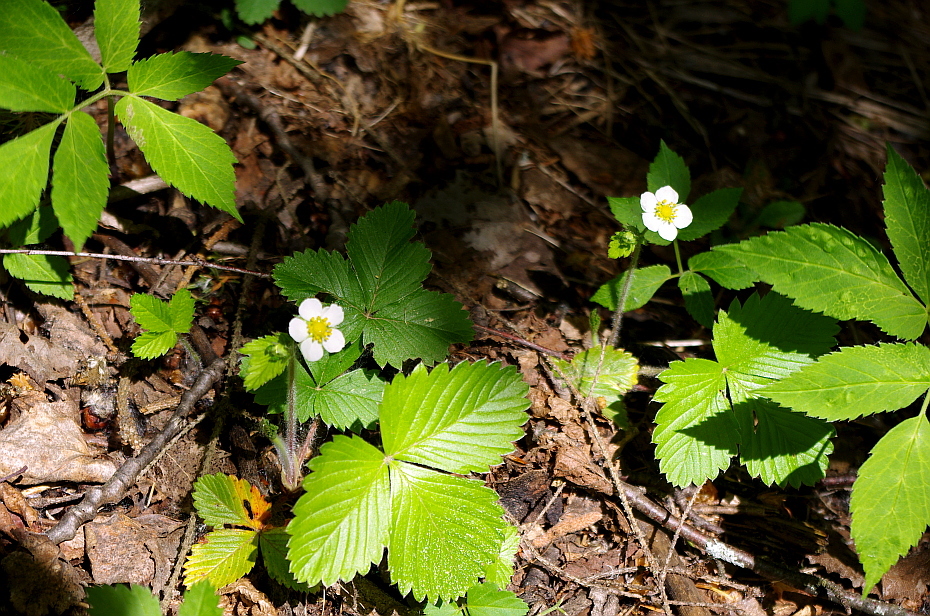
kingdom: Plantae
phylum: Tracheophyta
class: Magnoliopsida
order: Rosales
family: Rosaceae
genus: Fragaria
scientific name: Fragaria vesca
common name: Wild strawberry
